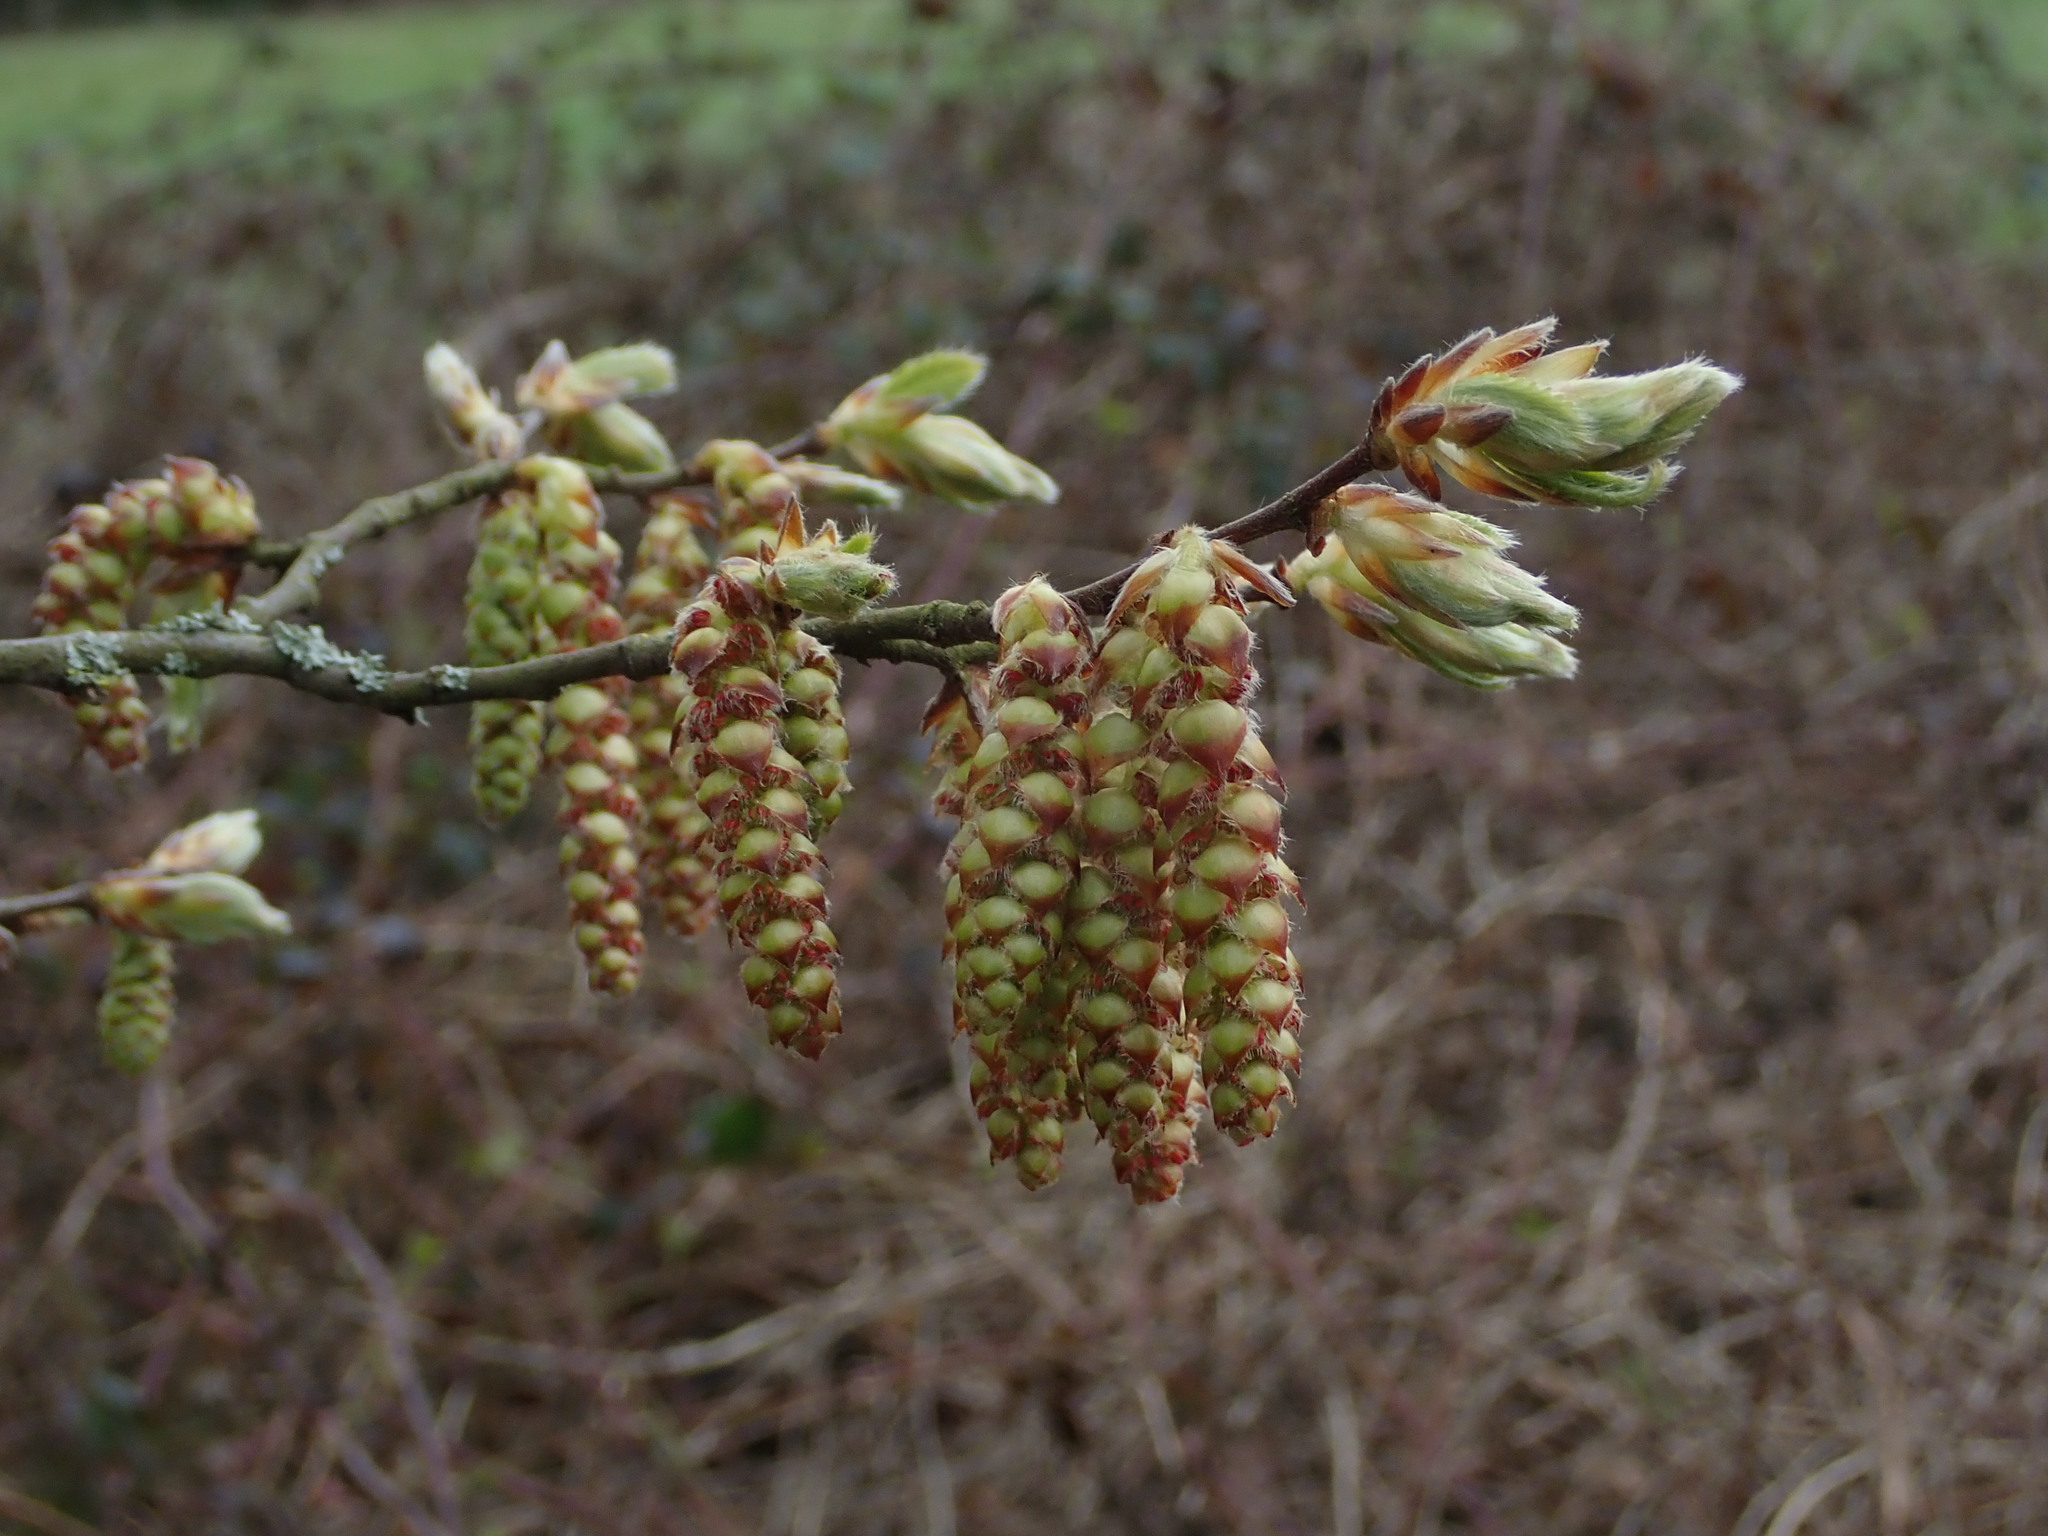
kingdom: Plantae
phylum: Tracheophyta
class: Magnoliopsida
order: Fagales
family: Betulaceae
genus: Carpinus
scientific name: Carpinus betulus
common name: Hornbeam
